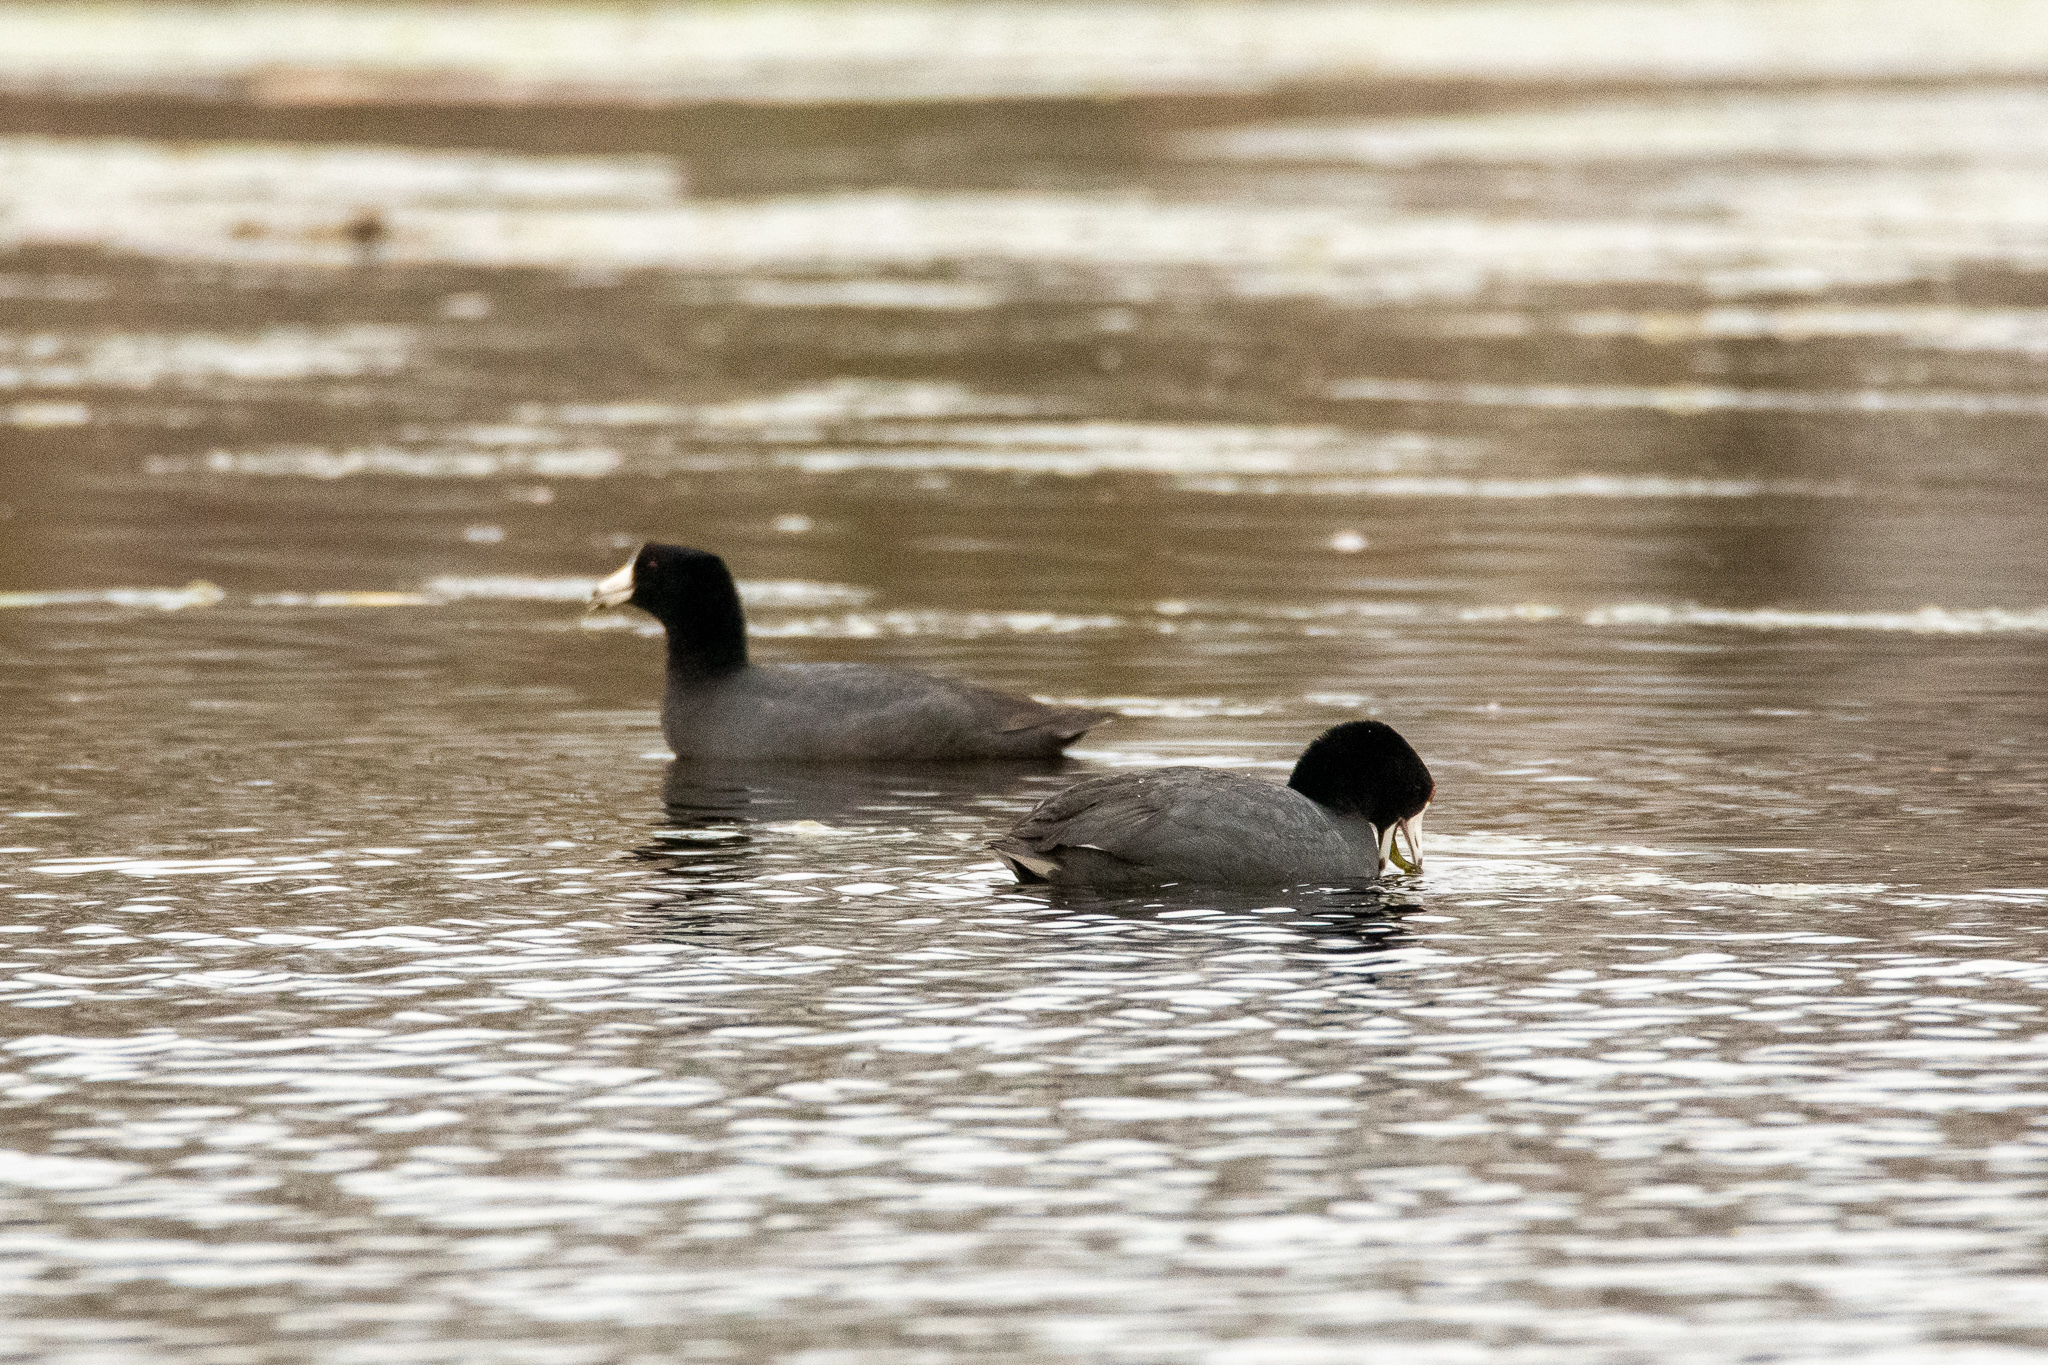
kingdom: Animalia
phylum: Chordata
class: Aves
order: Gruiformes
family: Rallidae
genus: Fulica
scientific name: Fulica americana
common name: American coot
